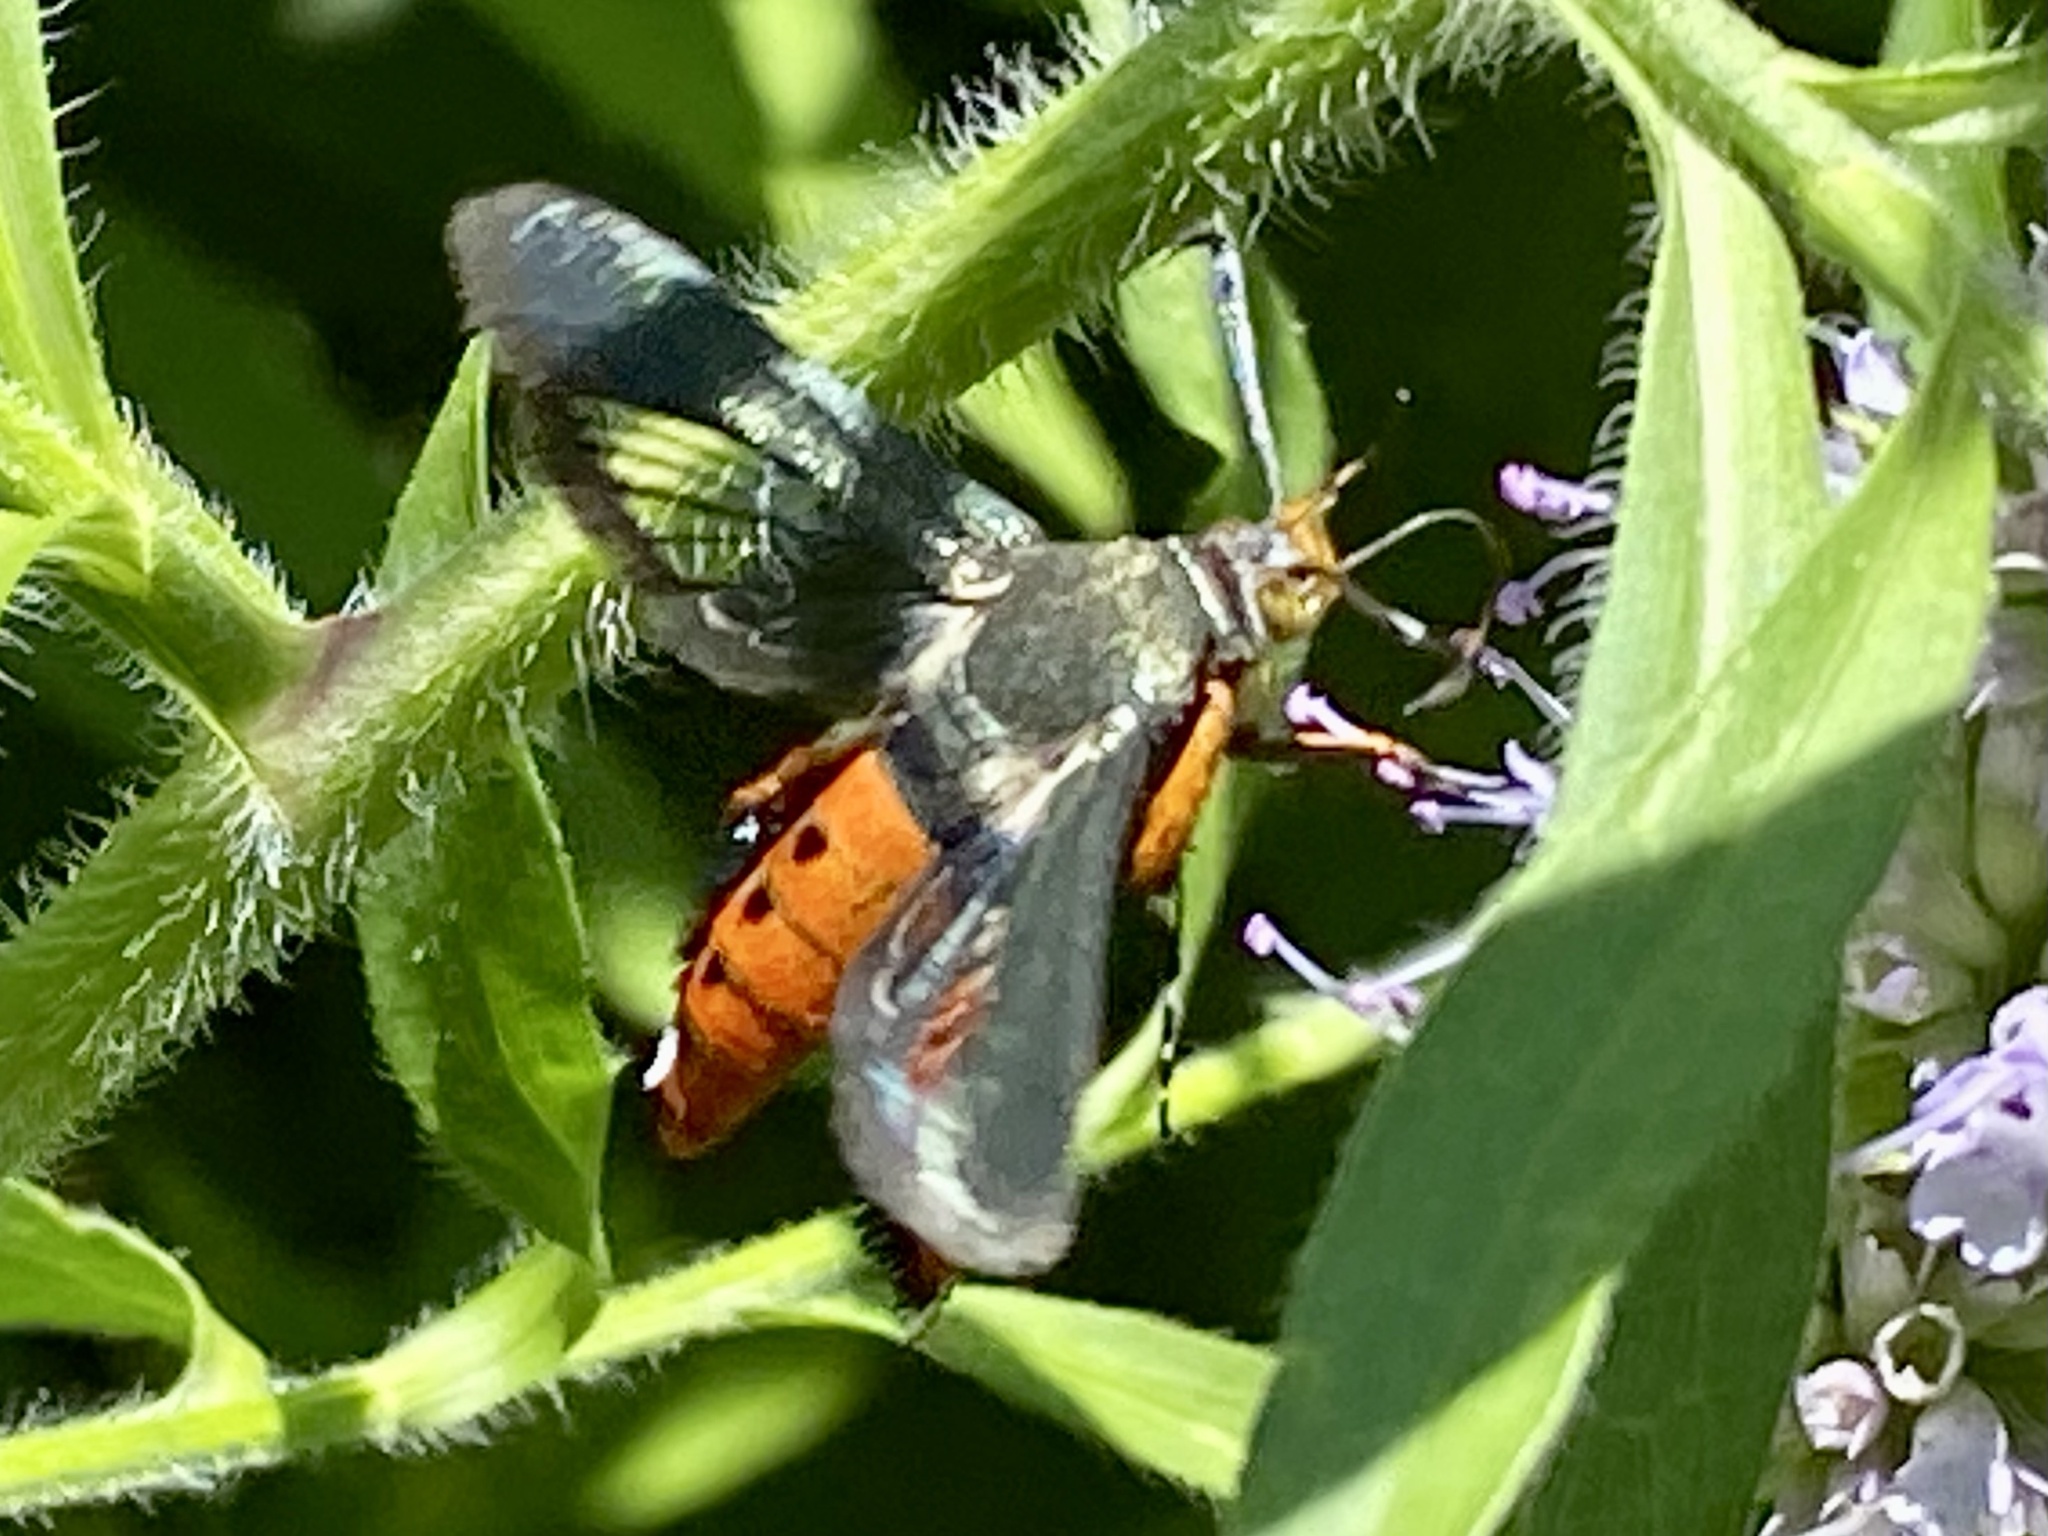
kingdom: Animalia
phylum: Arthropoda
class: Insecta
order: Lepidoptera
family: Sesiidae
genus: Eichlinia
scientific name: Eichlinia cucurbitae
